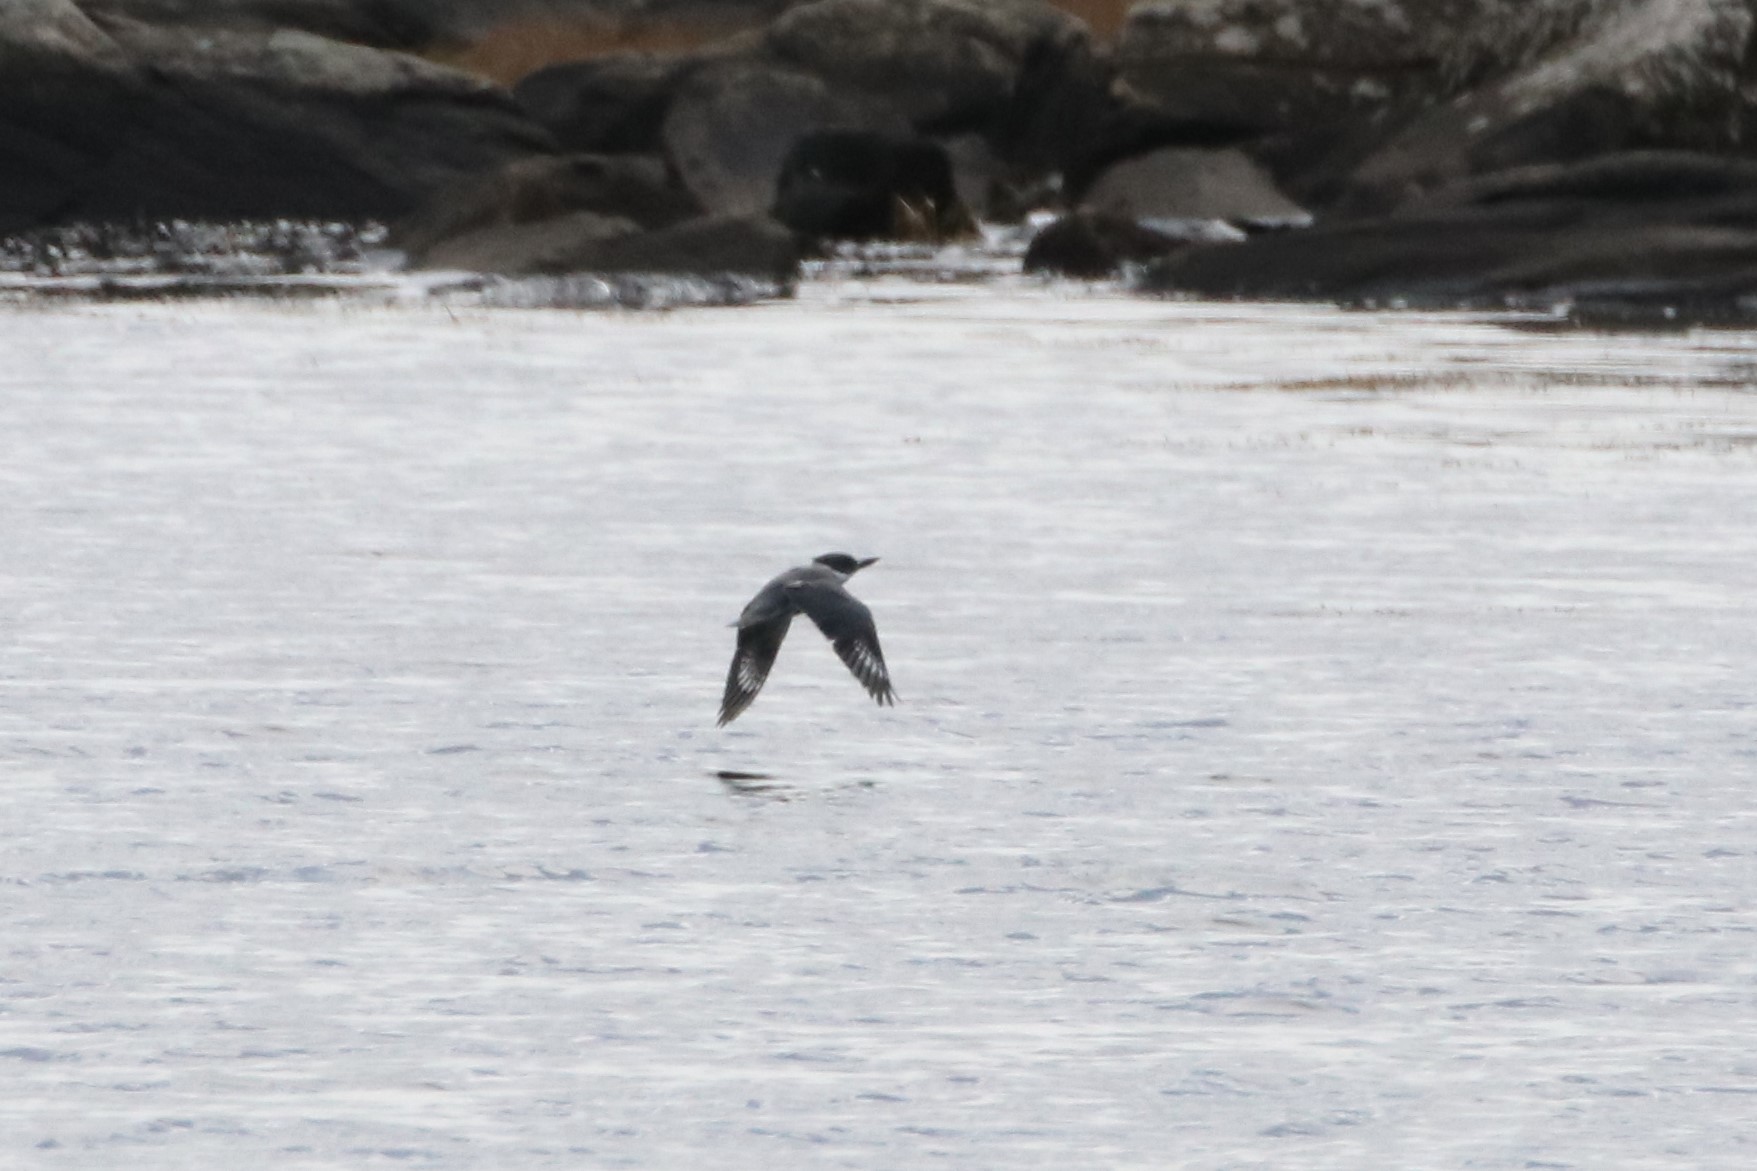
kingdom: Animalia
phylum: Chordata
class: Aves
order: Coraciiformes
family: Alcedinidae
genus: Megaceryle
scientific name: Megaceryle alcyon
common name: Belted kingfisher
